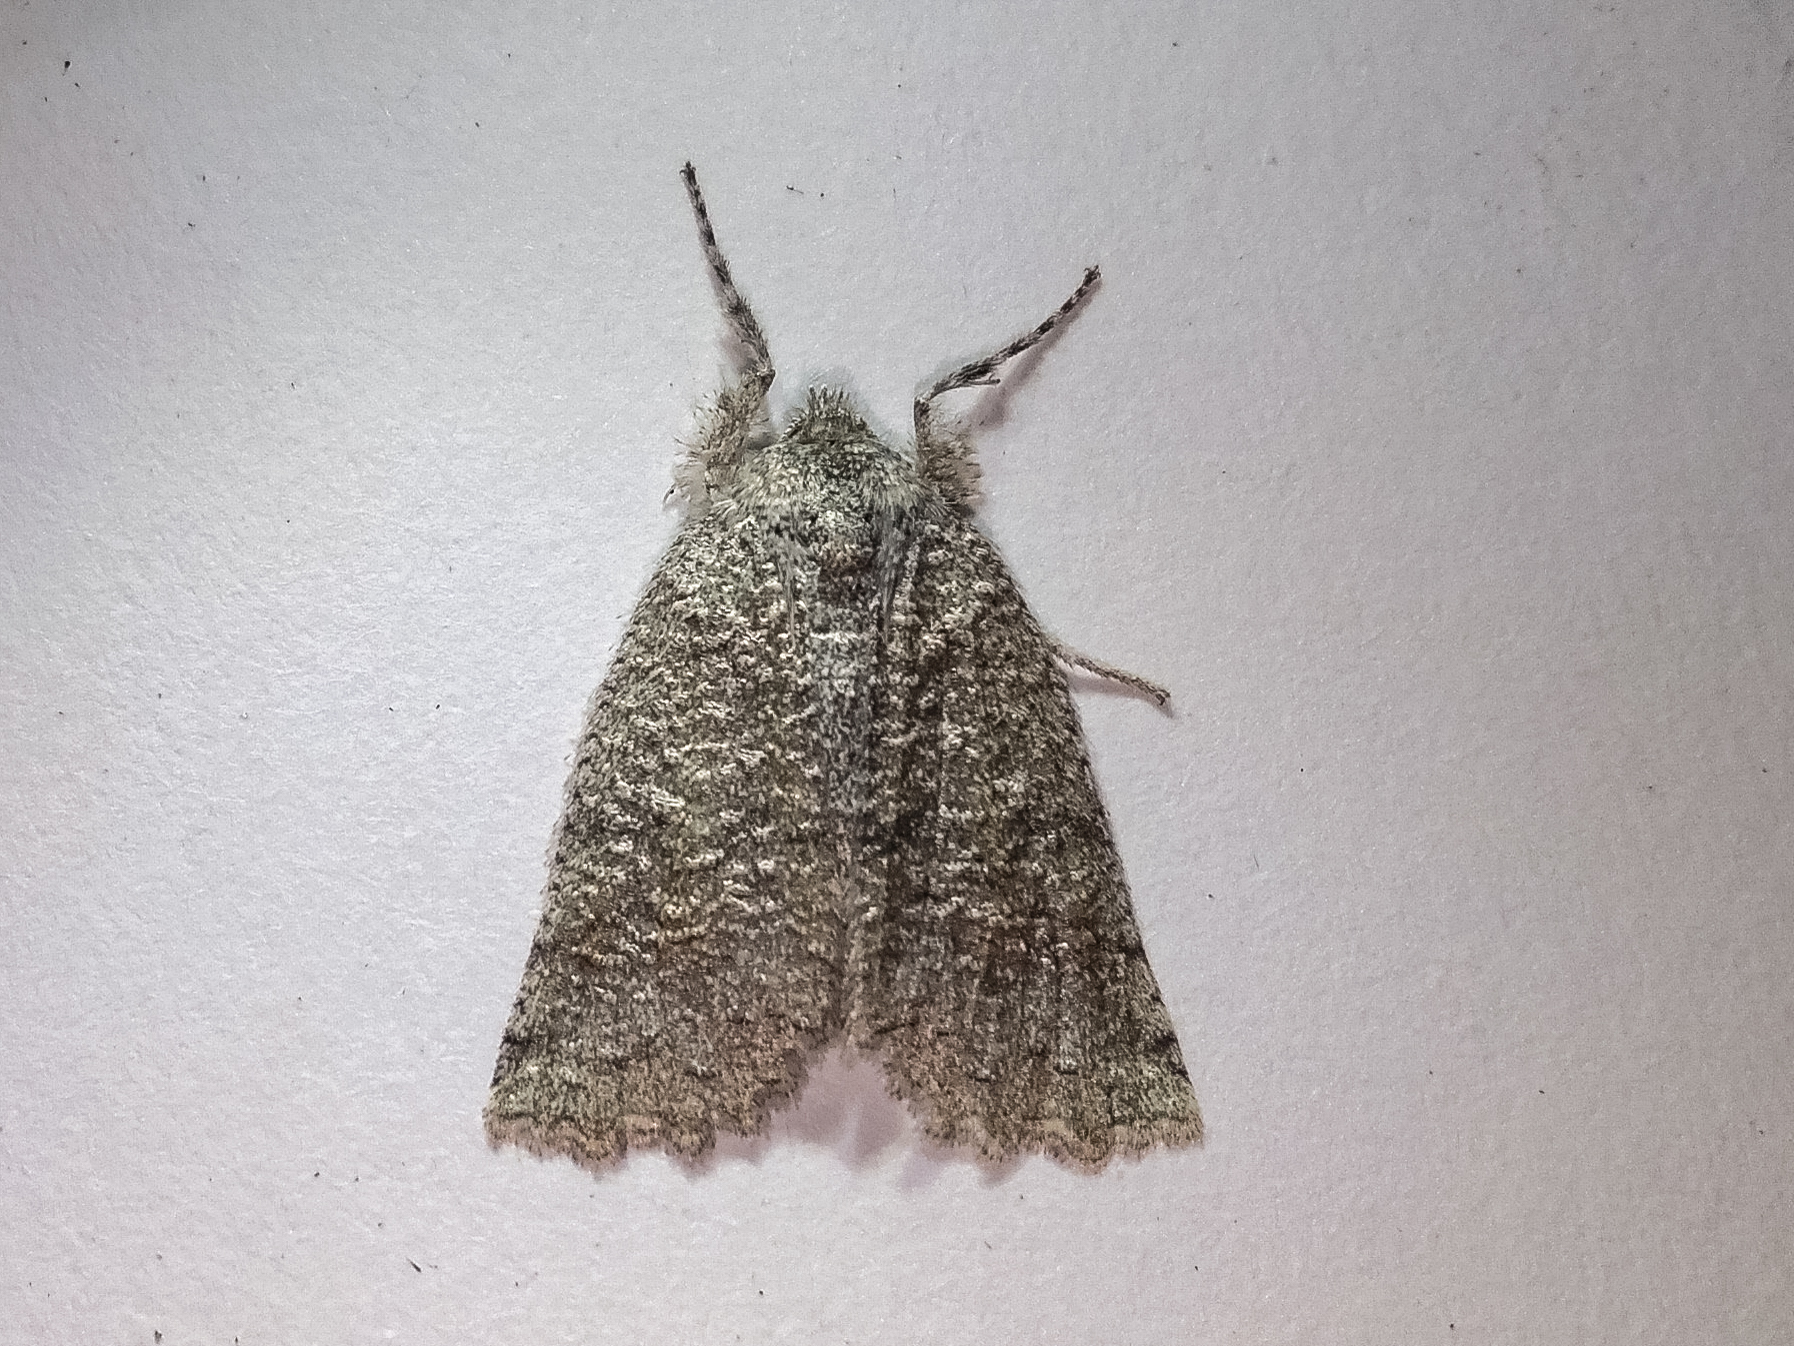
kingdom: Animalia
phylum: Arthropoda
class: Insecta
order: Lepidoptera
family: Geometridae
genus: Declana
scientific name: Declana floccosa
